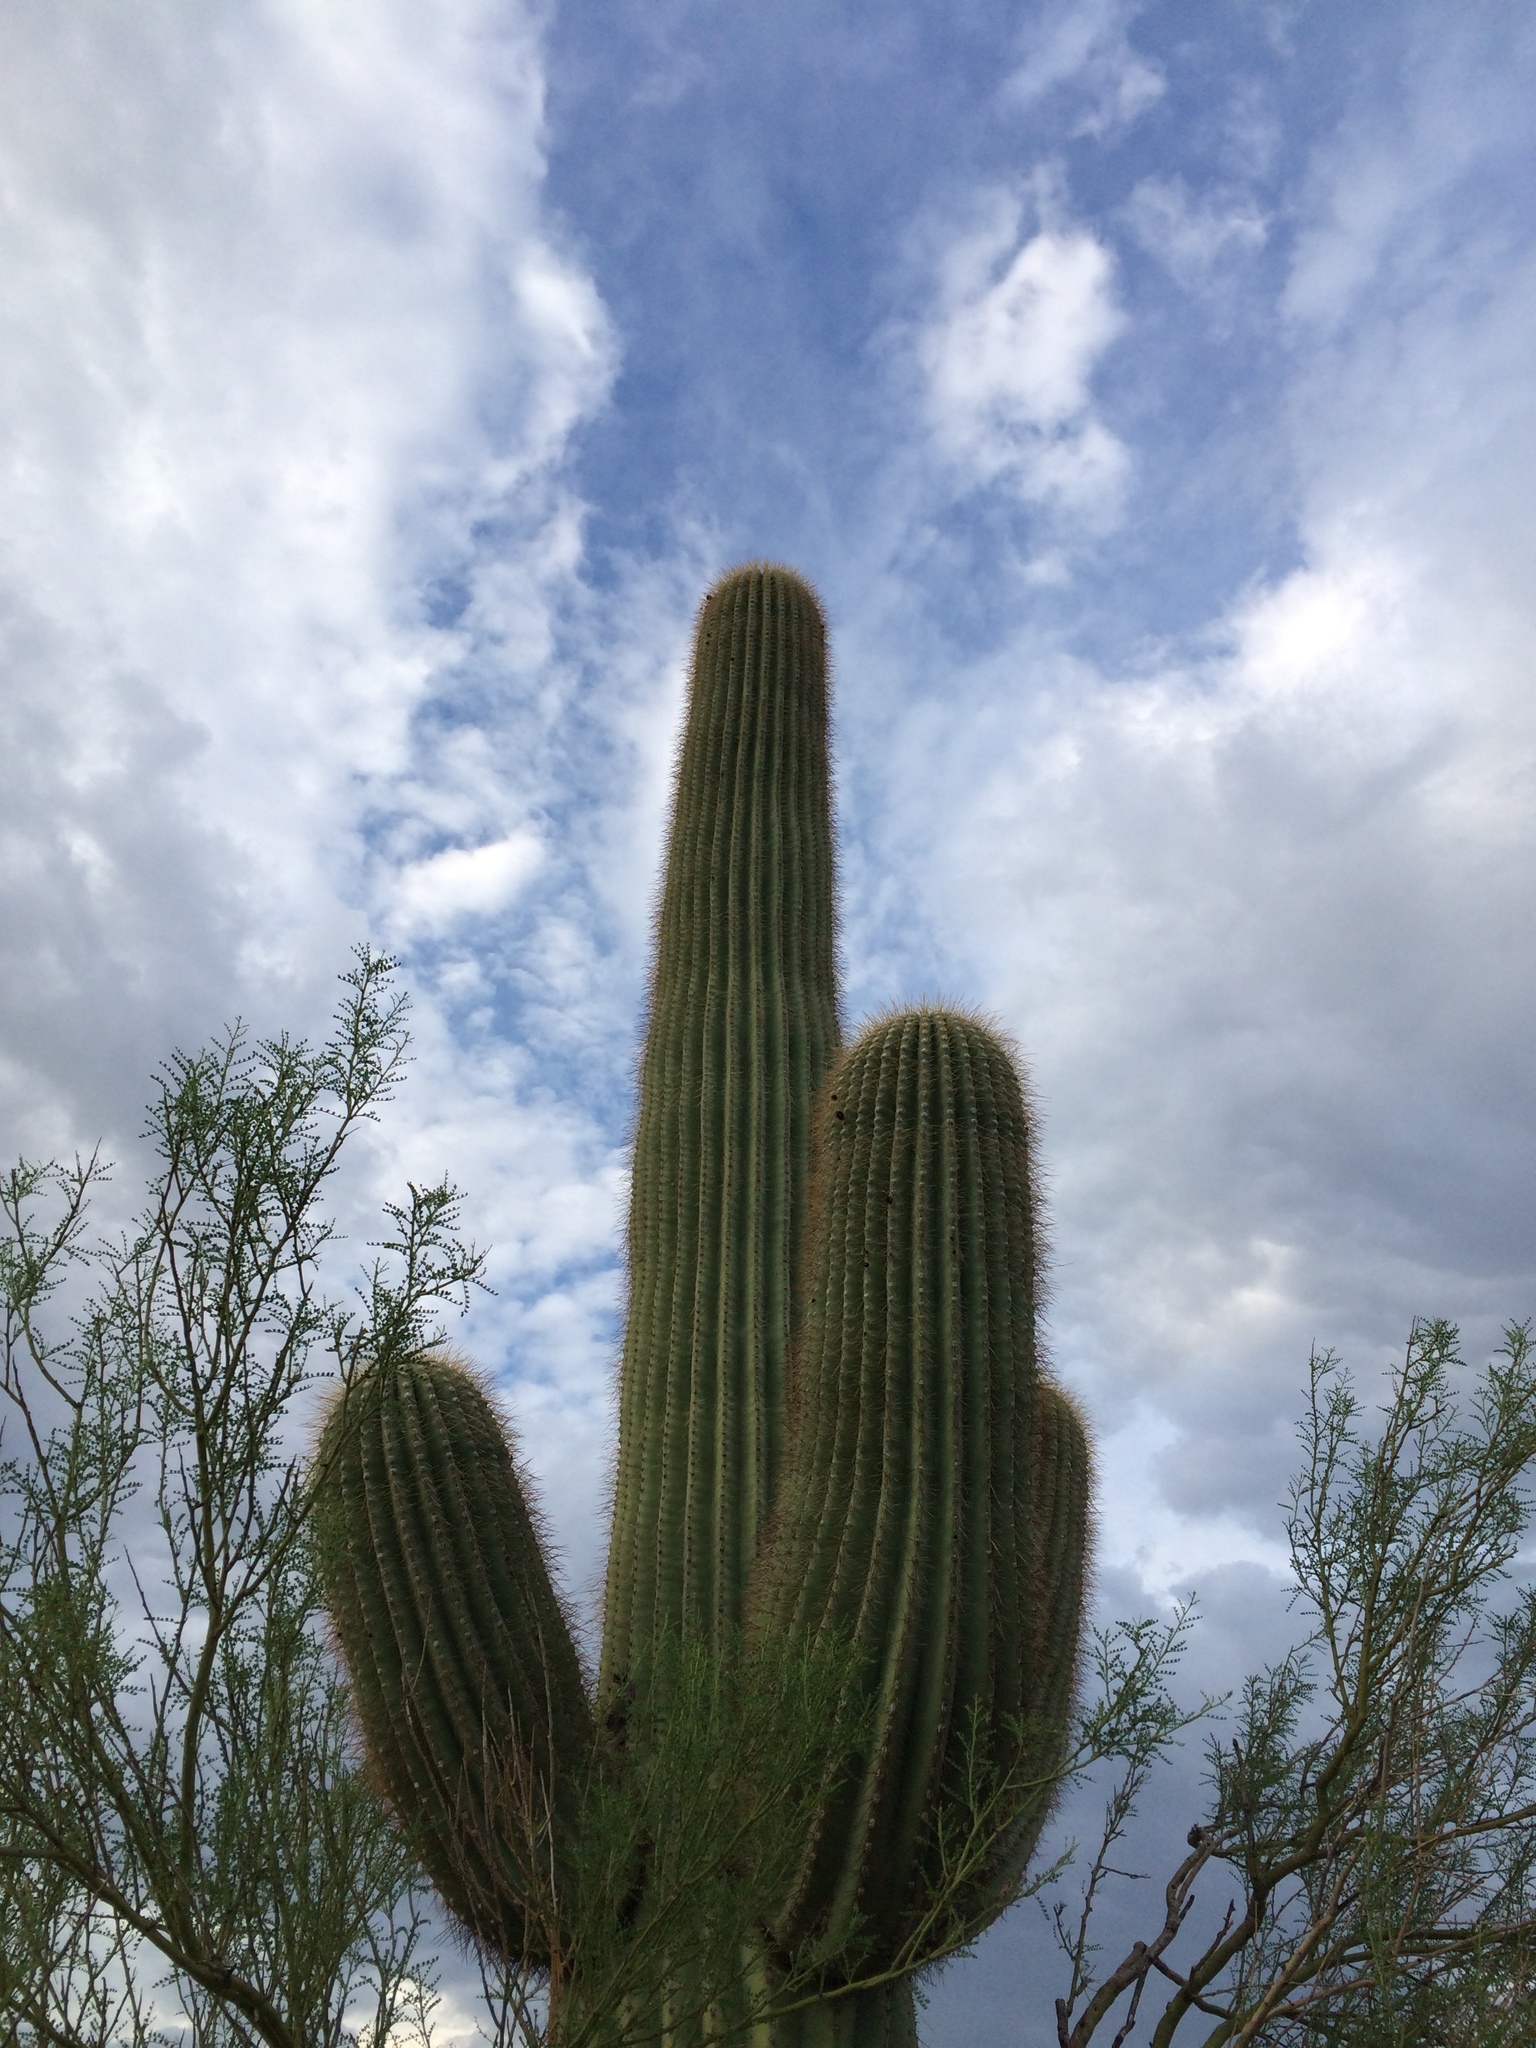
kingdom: Plantae
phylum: Tracheophyta
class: Magnoliopsida
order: Caryophyllales
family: Cactaceae
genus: Carnegiea
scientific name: Carnegiea gigantea
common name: Saguaro
